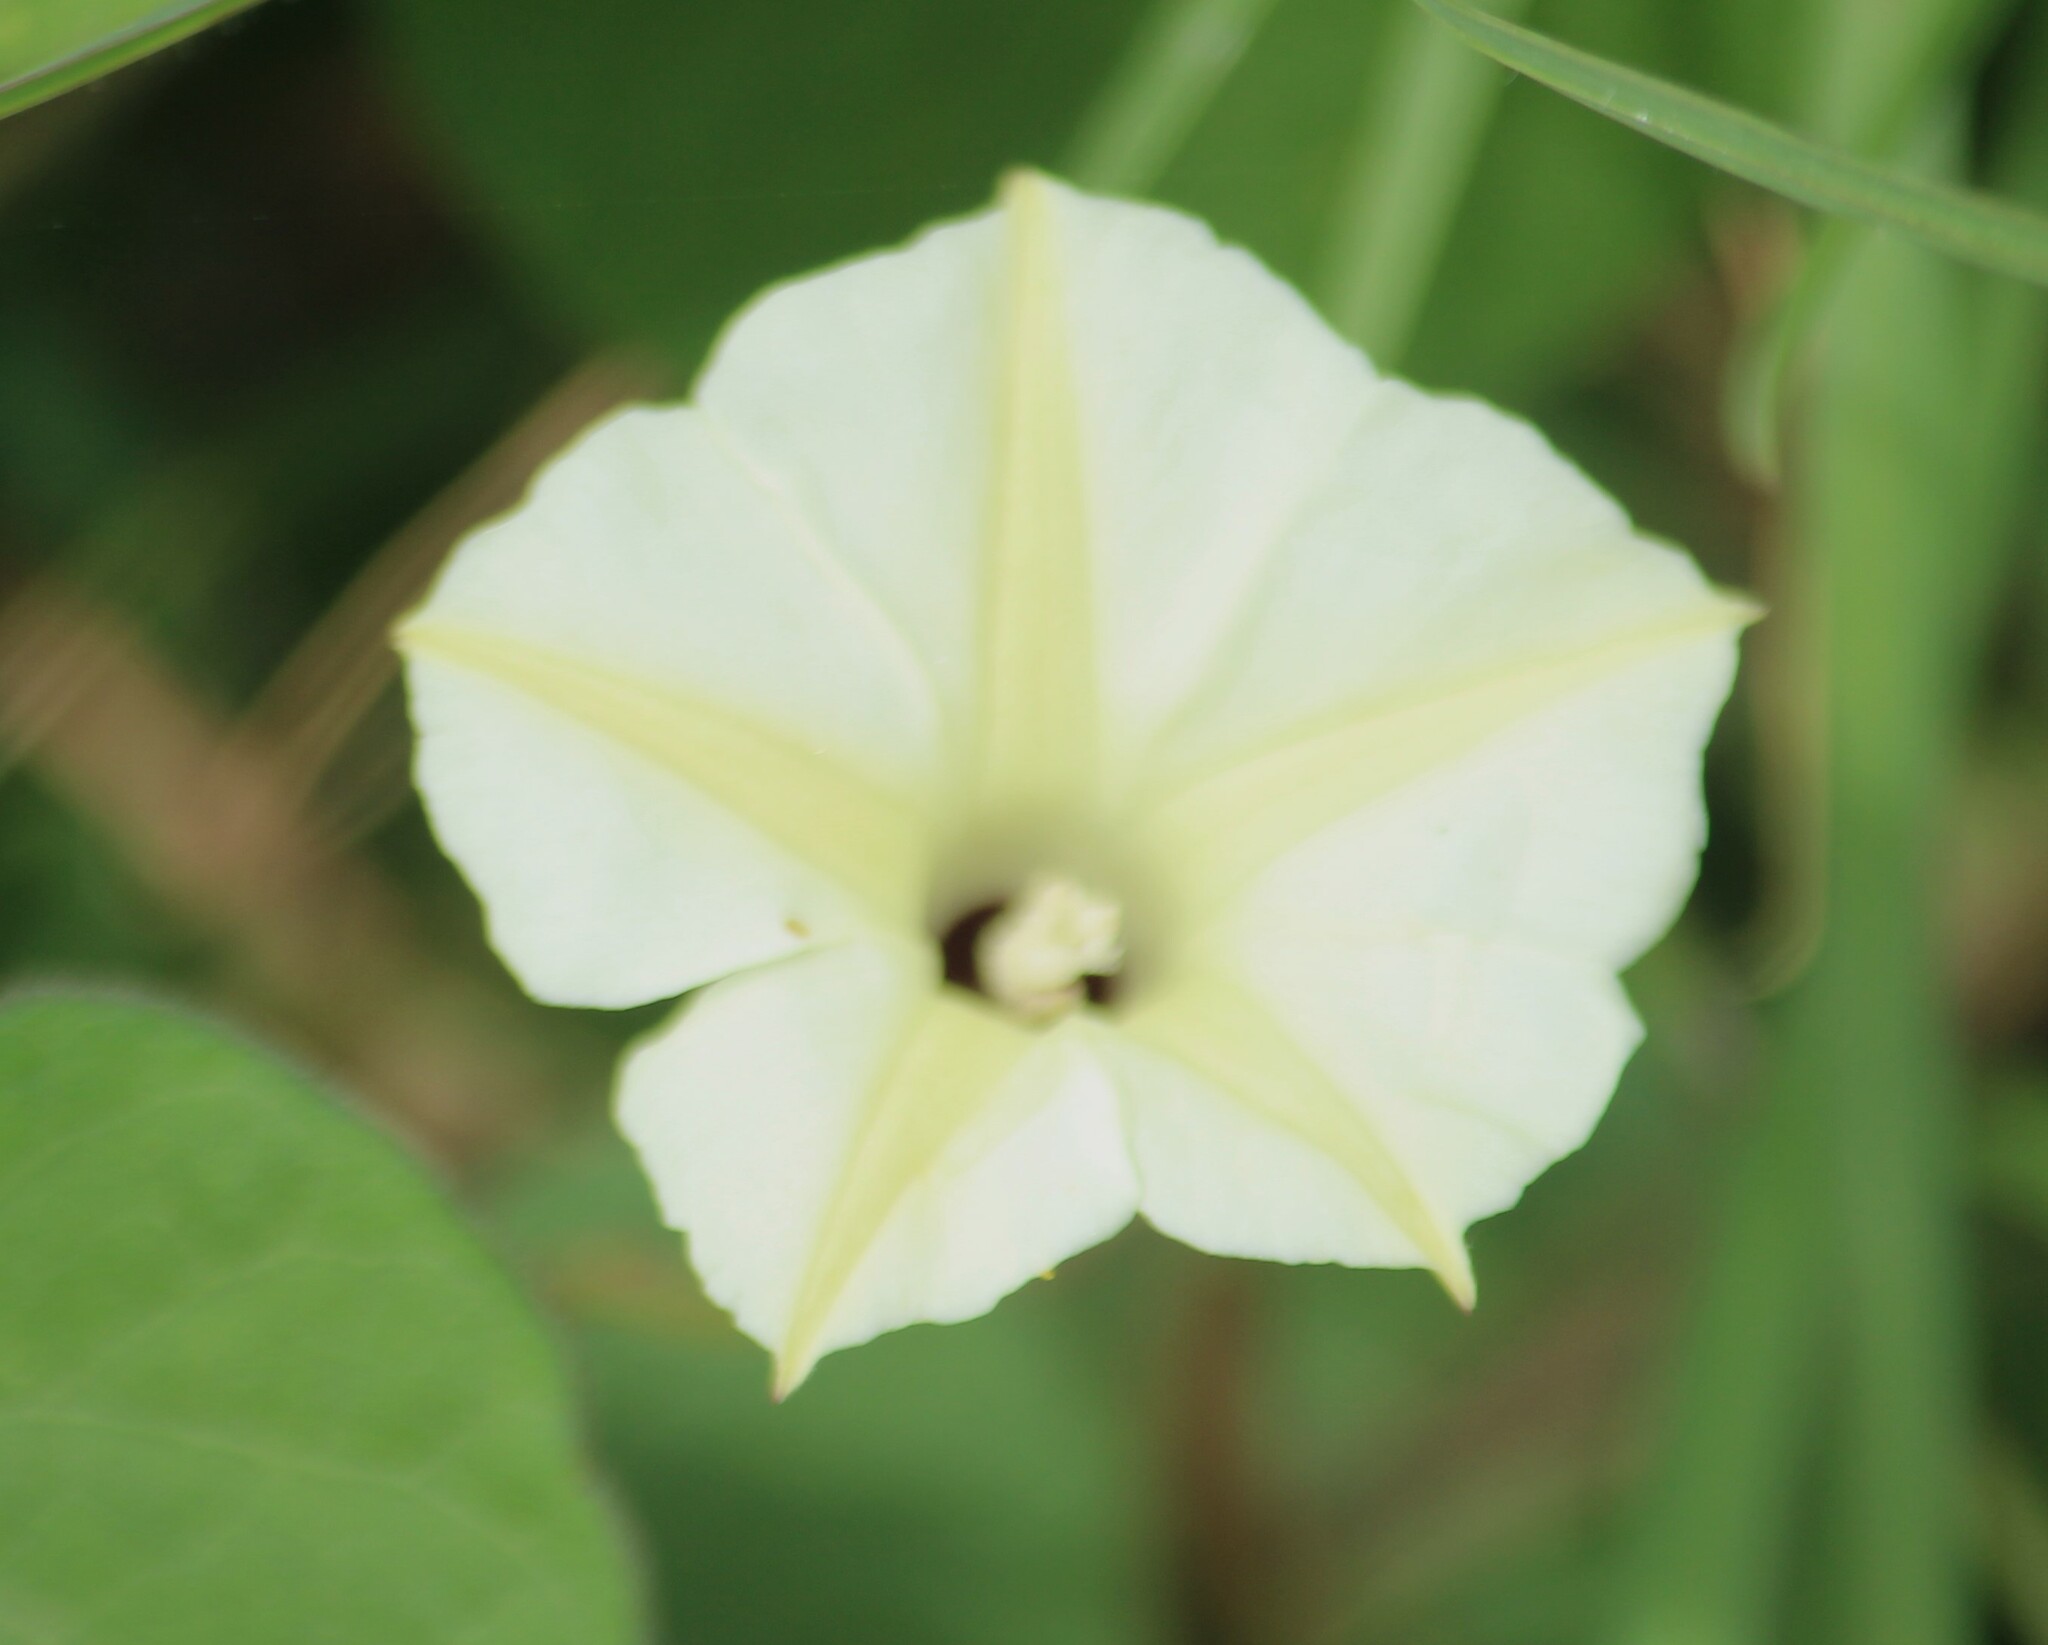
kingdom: Plantae
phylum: Tracheophyta
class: Magnoliopsida
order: Solanales
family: Convolvulaceae
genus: Ipomoea
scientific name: Ipomoea obscura
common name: Obscure morning-glory
